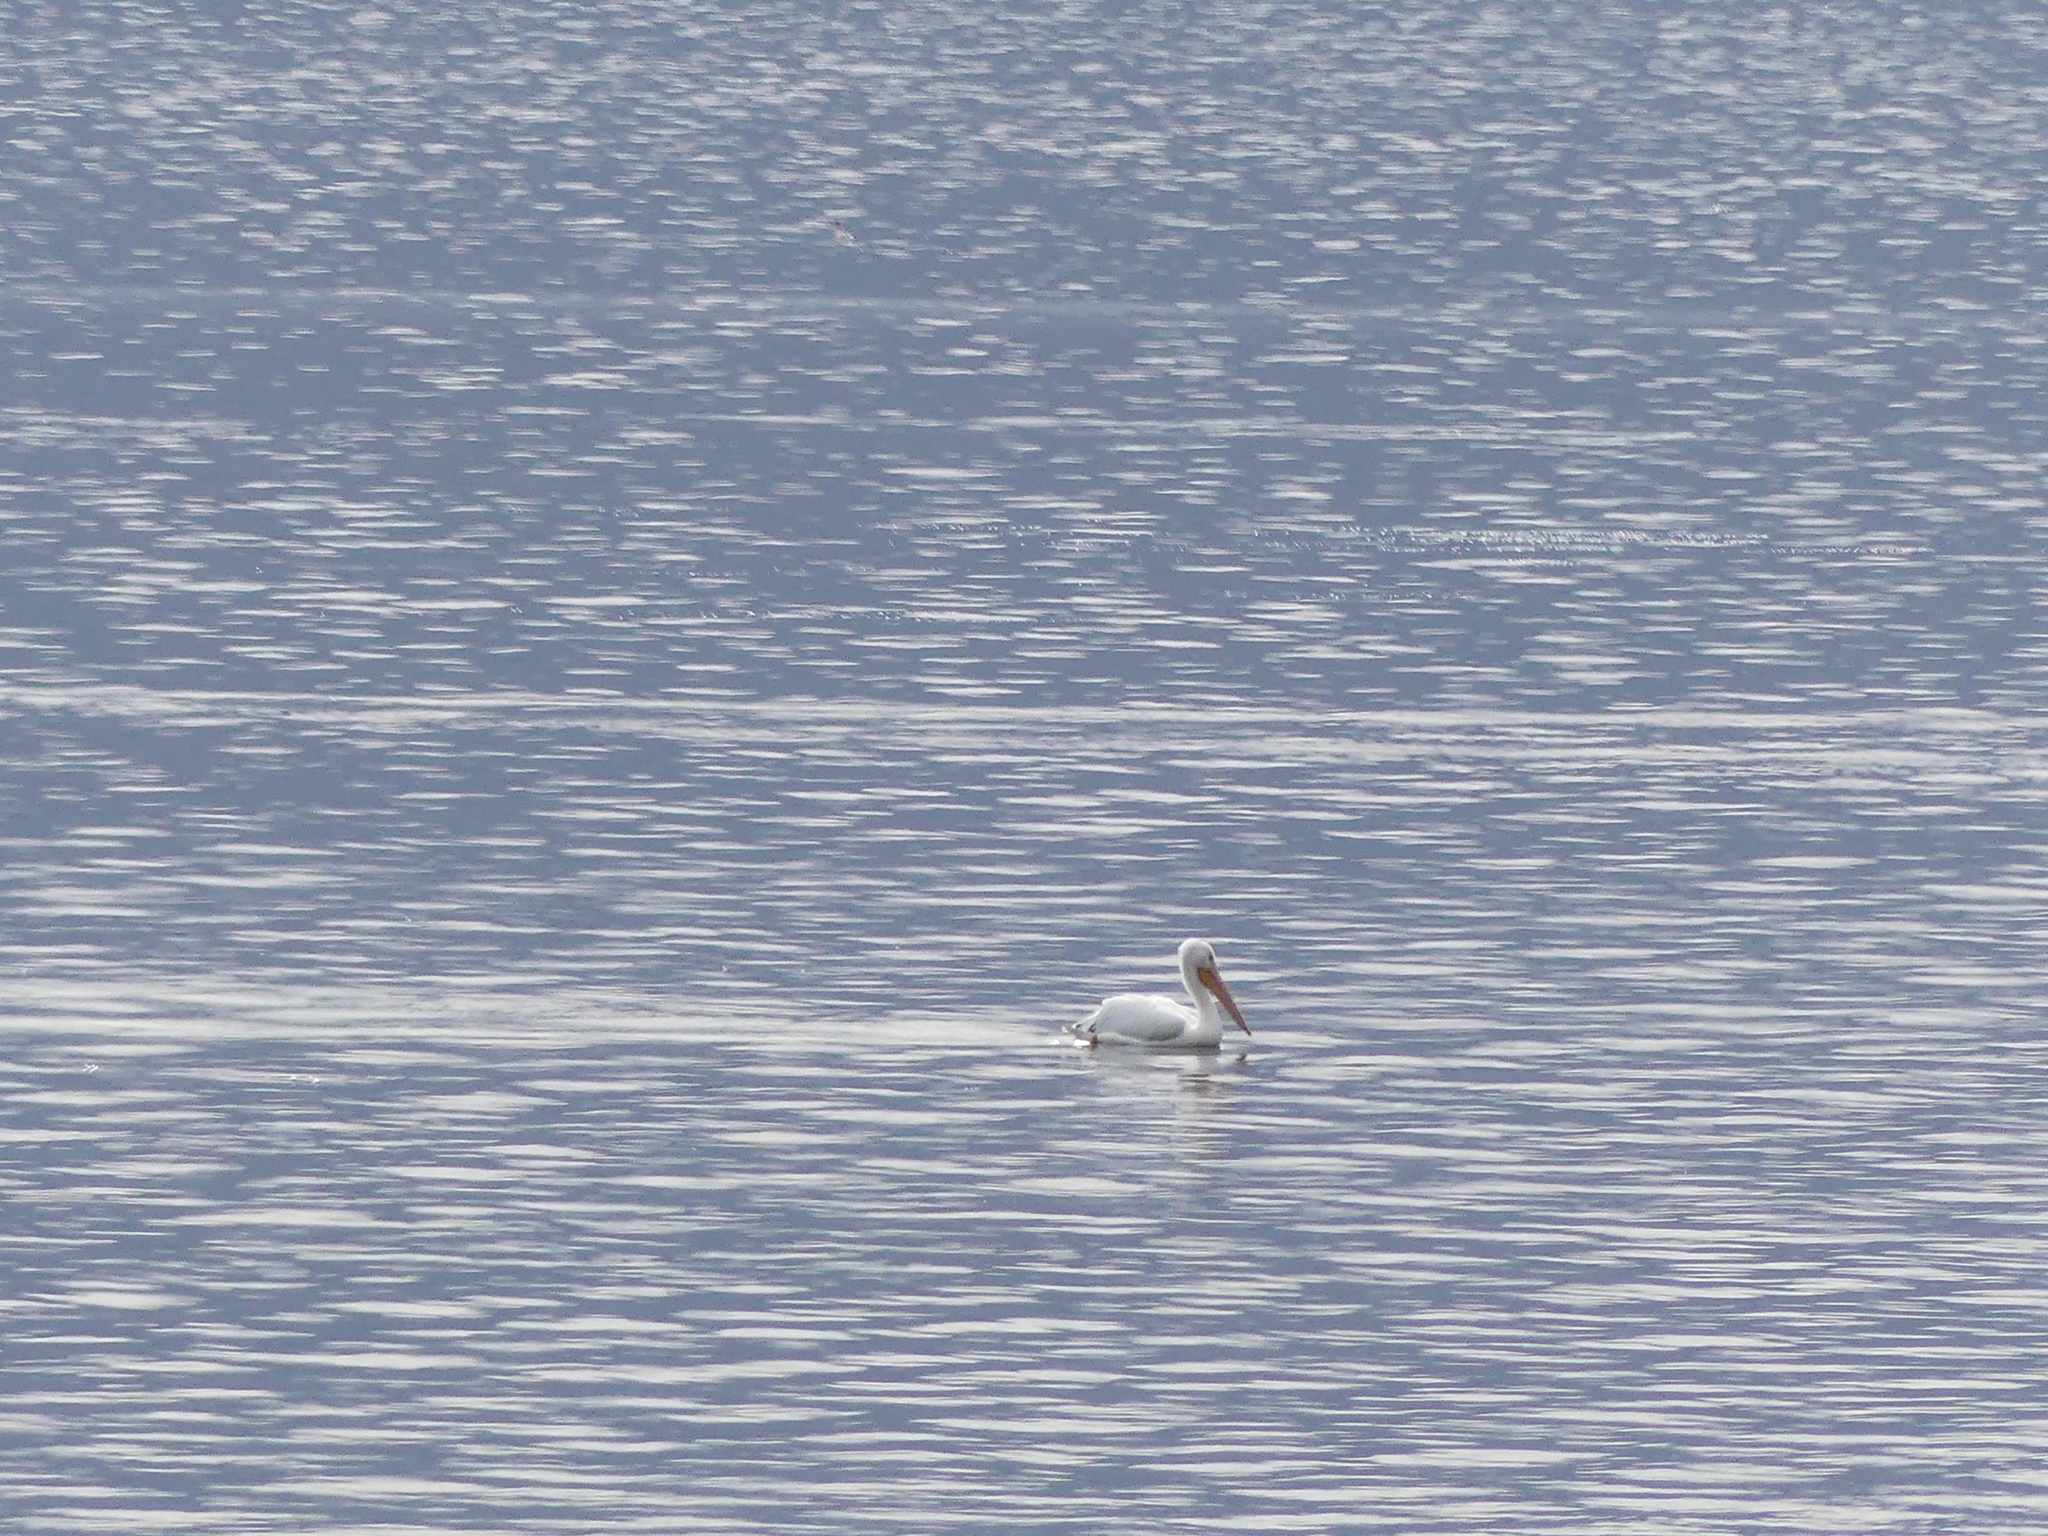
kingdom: Animalia
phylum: Chordata
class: Aves
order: Pelecaniformes
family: Pelecanidae
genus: Pelecanus
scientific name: Pelecanus erythrorhynchos
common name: American white pelican
